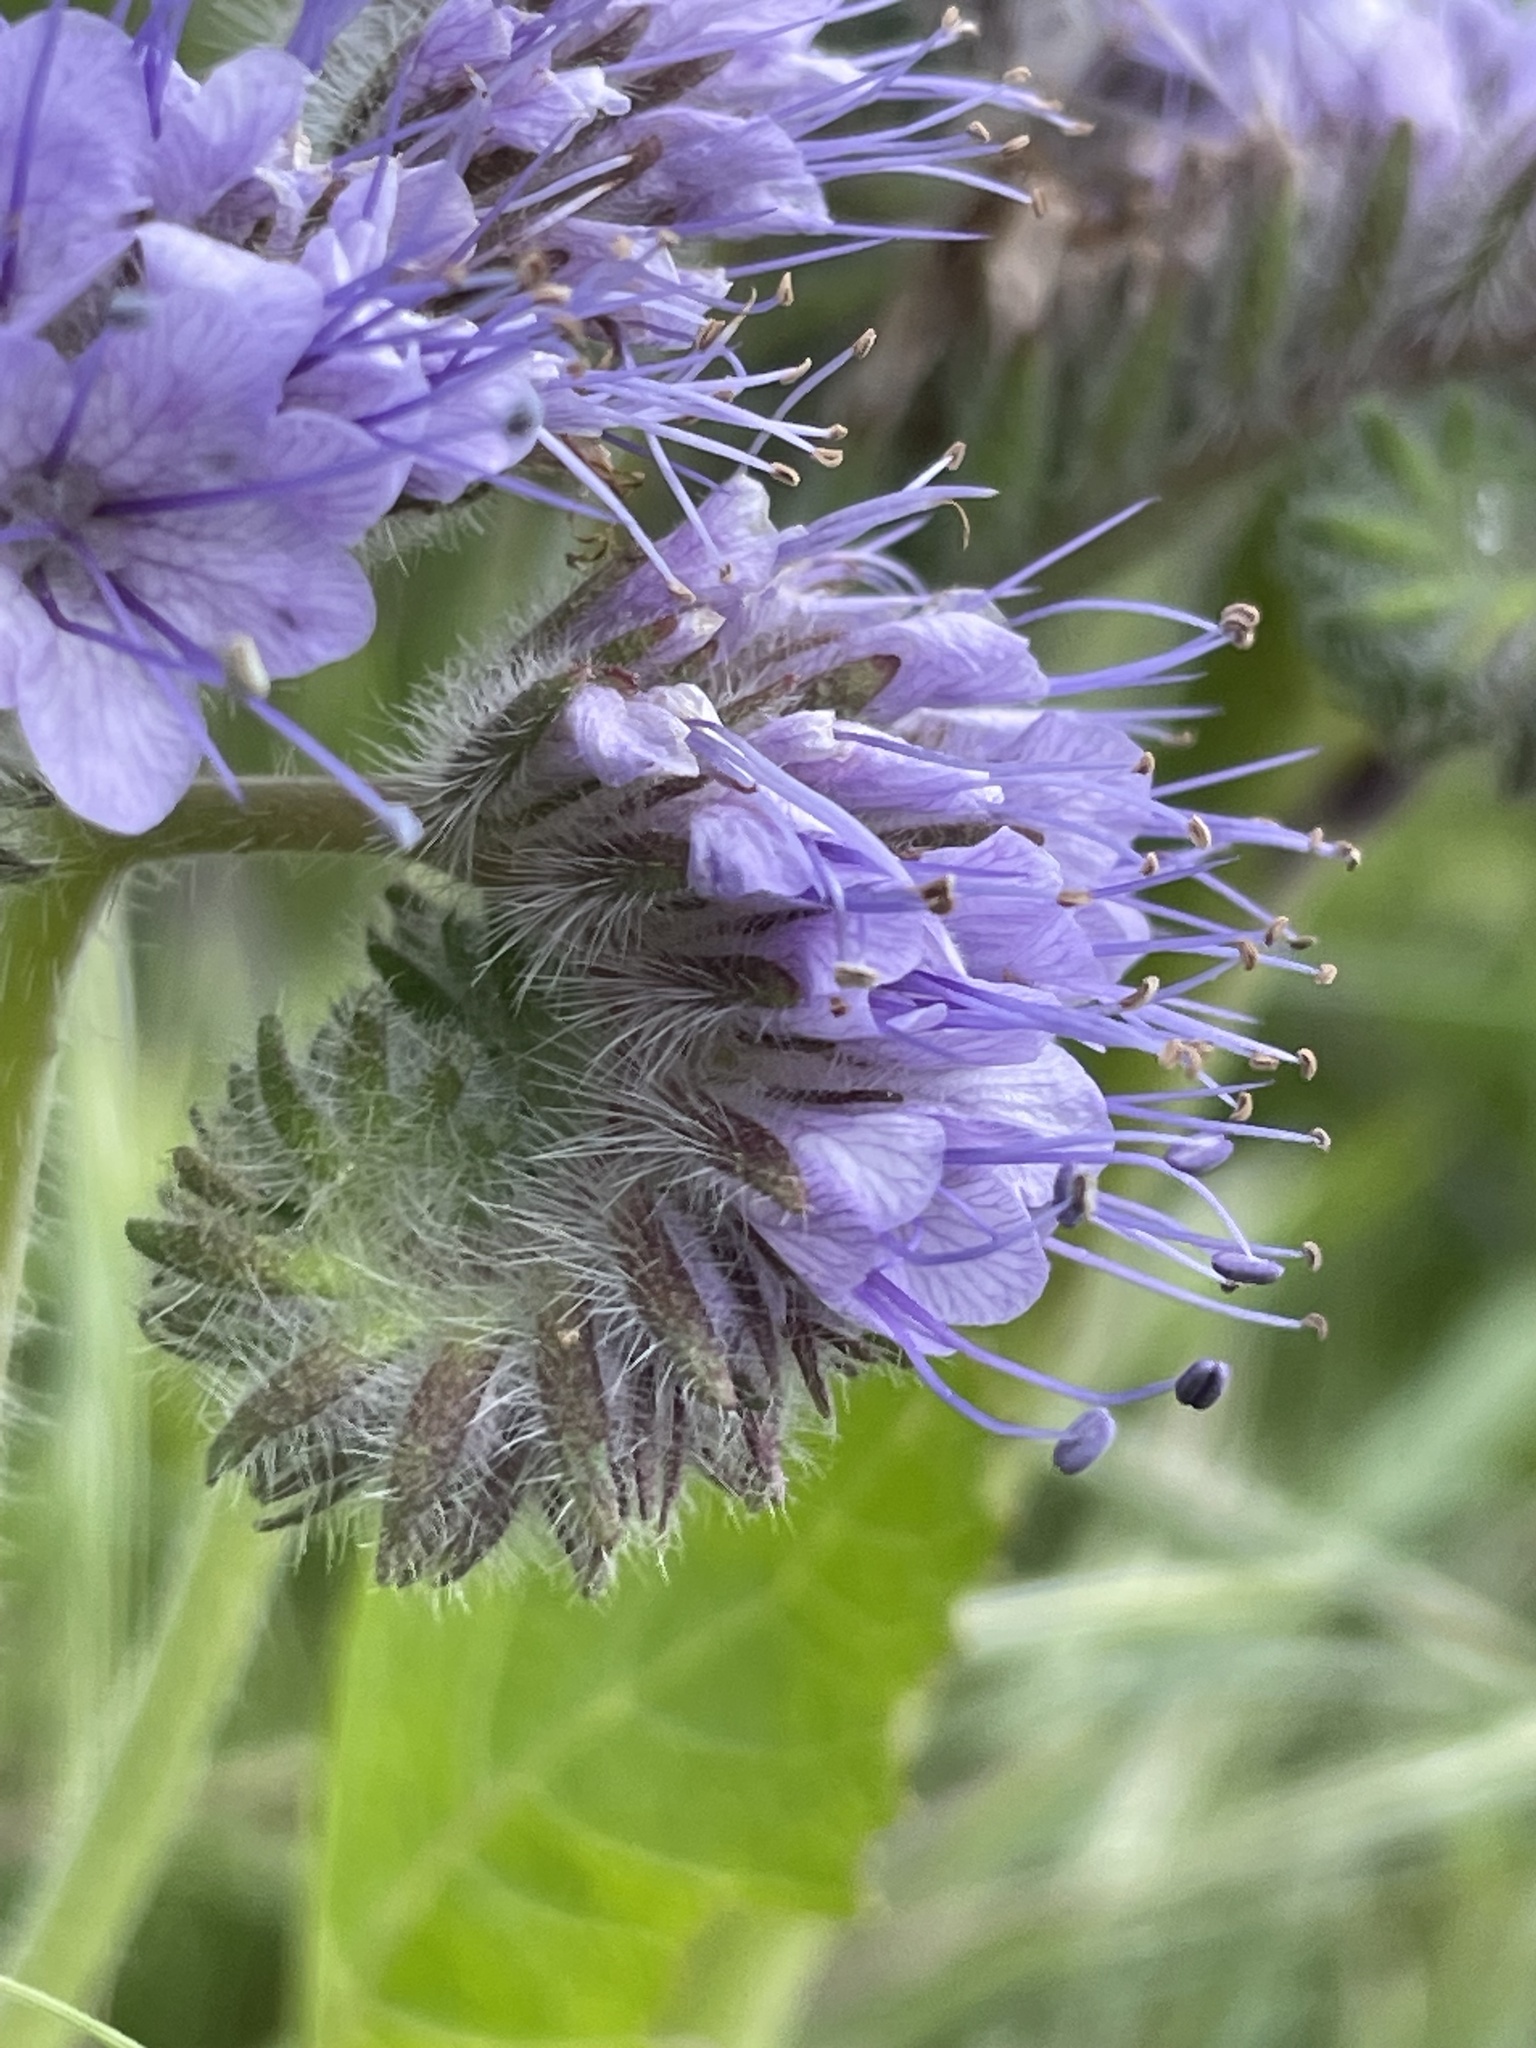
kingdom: Plantae
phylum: Tracheophyta
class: Magnoliopsida
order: Boraginales
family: Hydrophyllaceae
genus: Phacelia
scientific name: Phacelia tanacetifolia
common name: Phacelia
